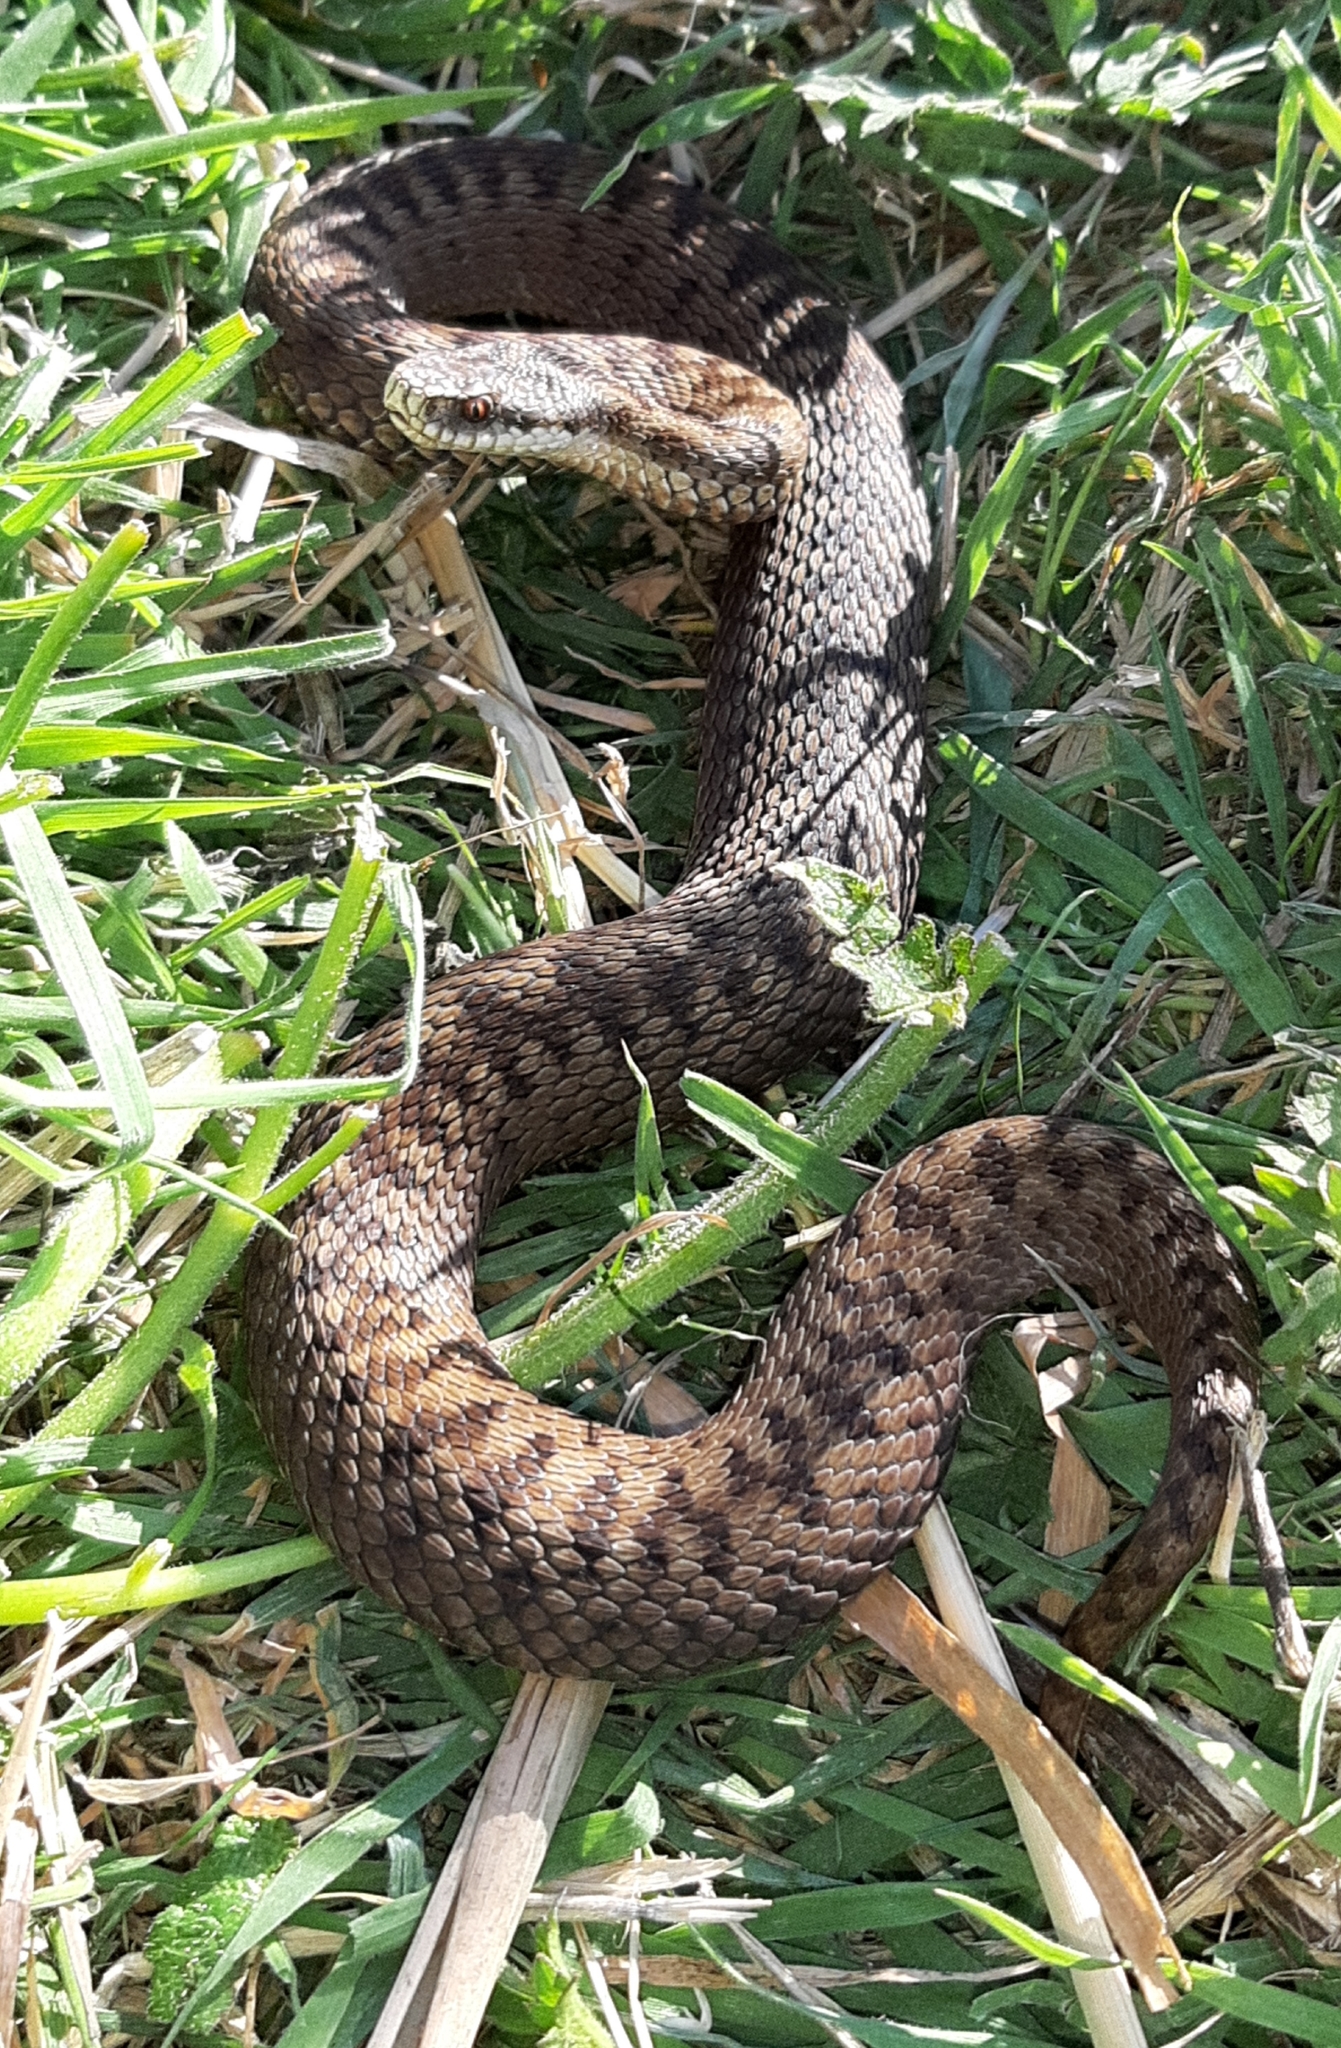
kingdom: Animalia
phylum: Chordata
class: Squamata
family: Viperidae
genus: Vipera
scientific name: Vipera berus
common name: Adder
